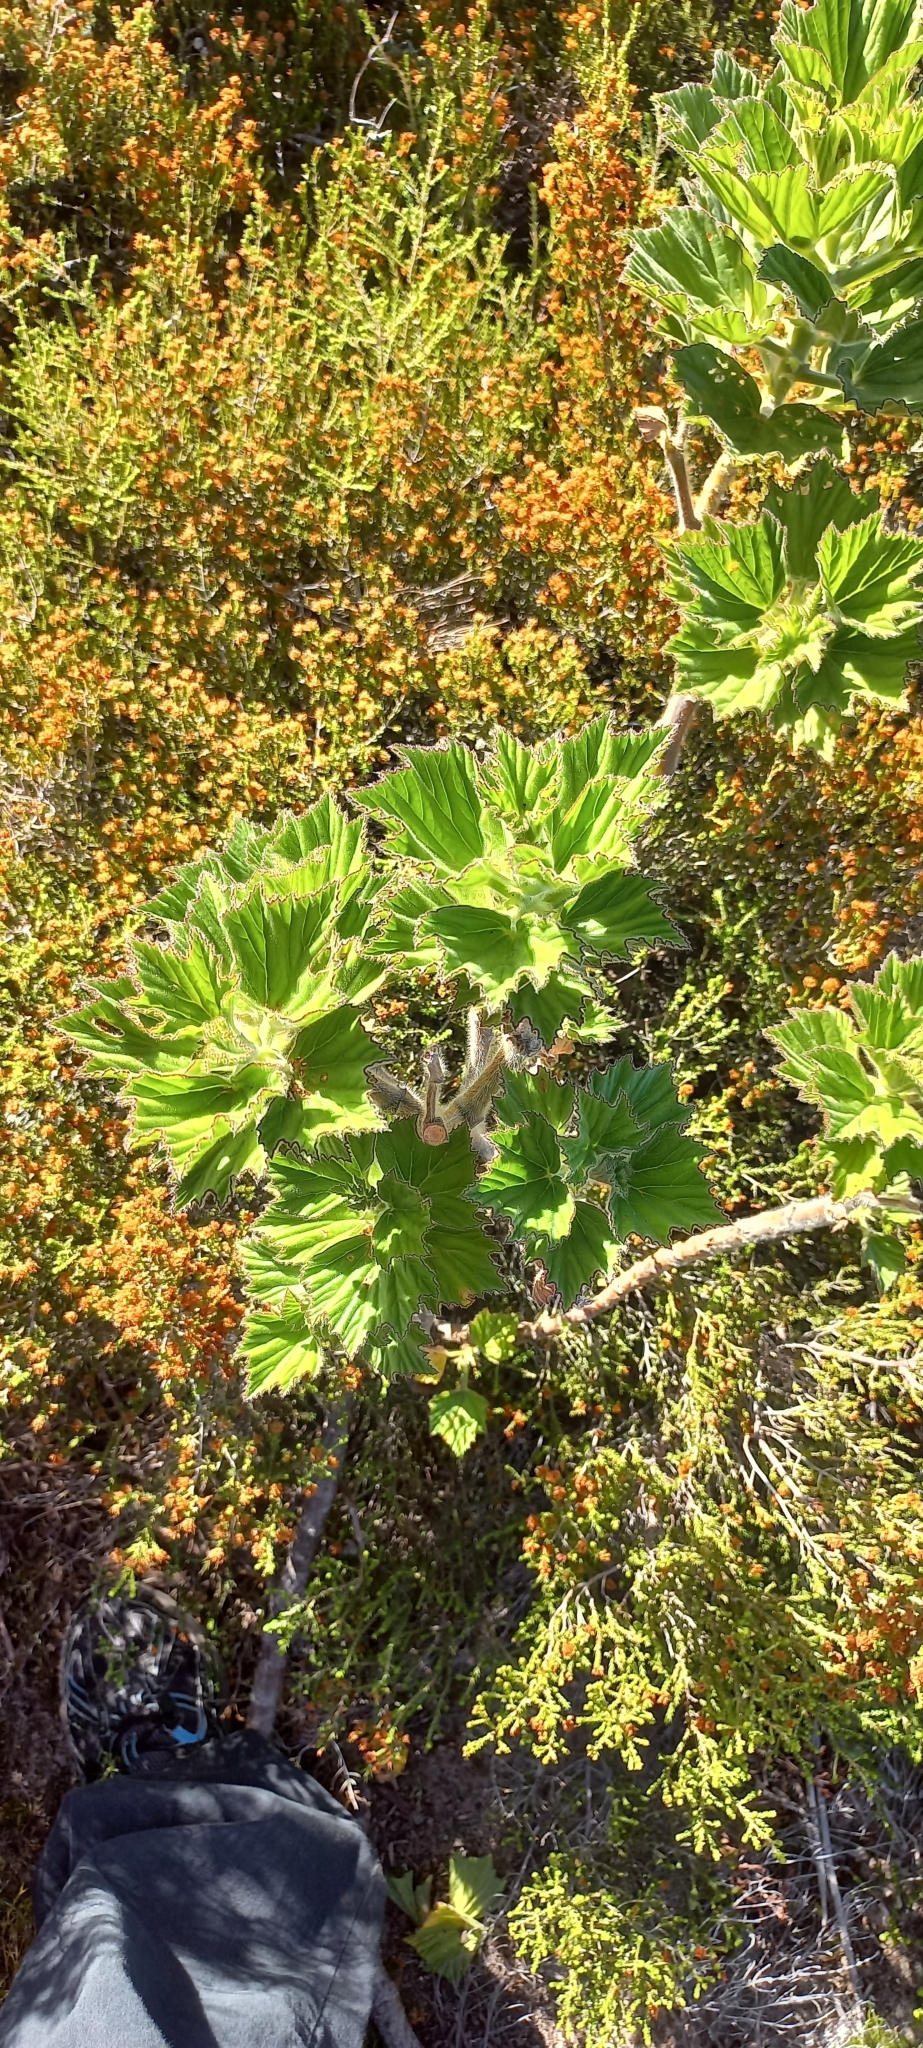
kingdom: Plantae
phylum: Tracheophyta
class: Magnoliopsida
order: Geraniales
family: Geraniaceae
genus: Pelargonium
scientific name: Pelargonium cucullatum
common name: Tree pelargonium
